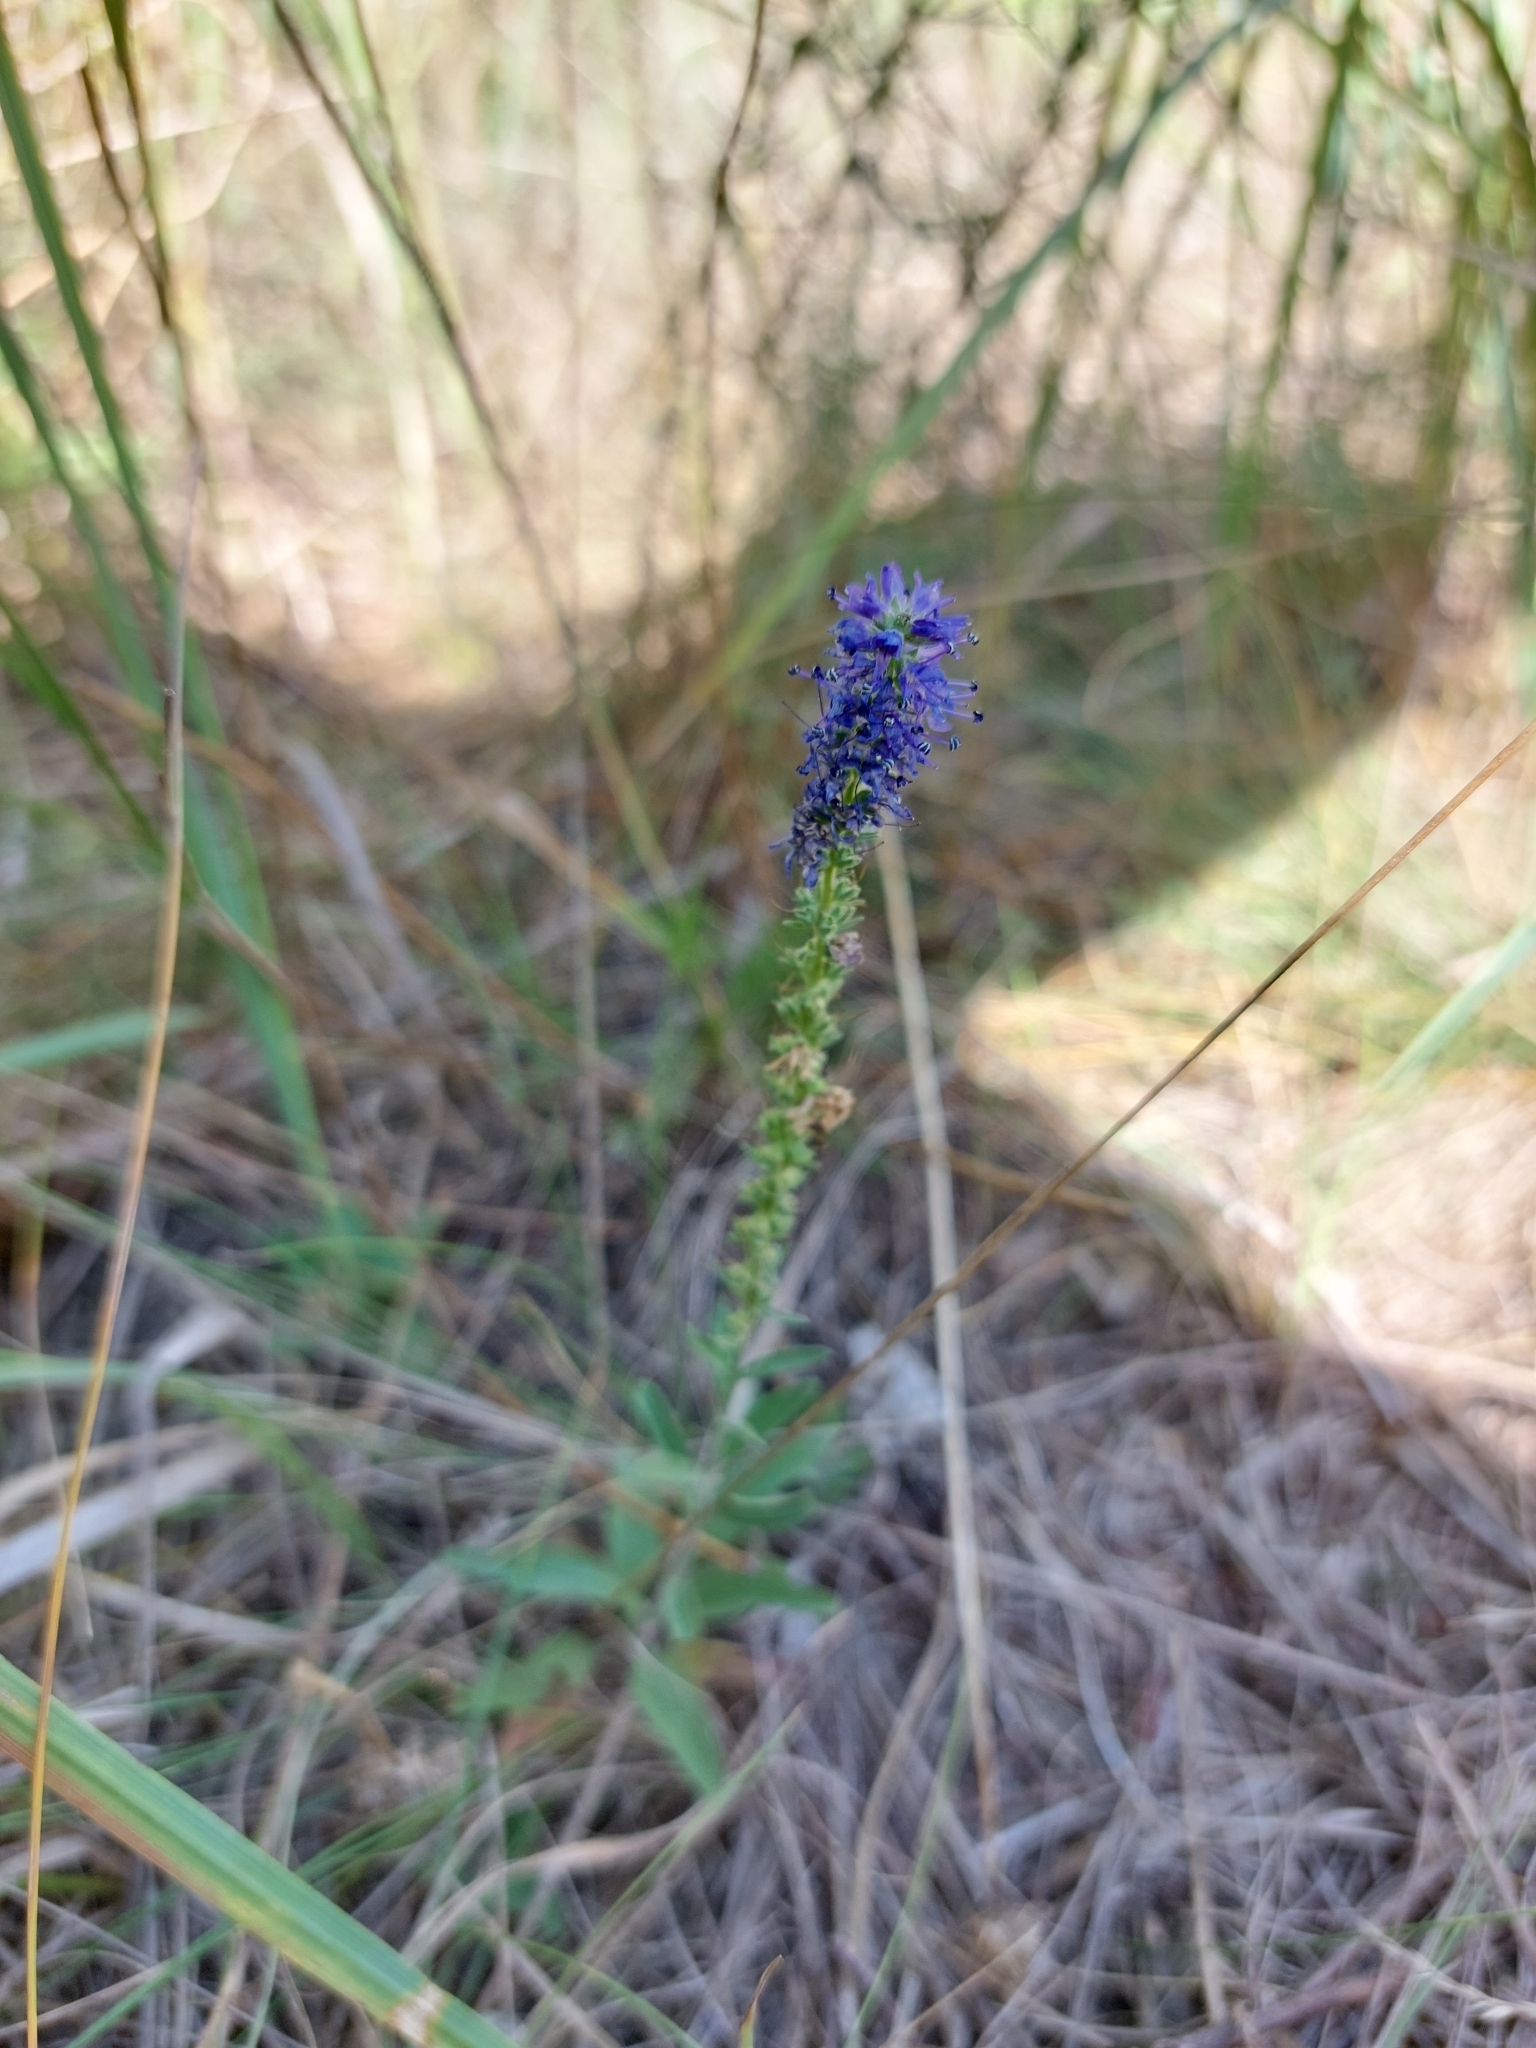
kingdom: Plantae
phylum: Tracheophyta
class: Magnoliopsida
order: Lamiales
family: Plantaginaceae
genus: Veronica
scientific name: Veronica spicata
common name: Spiked speedwell
